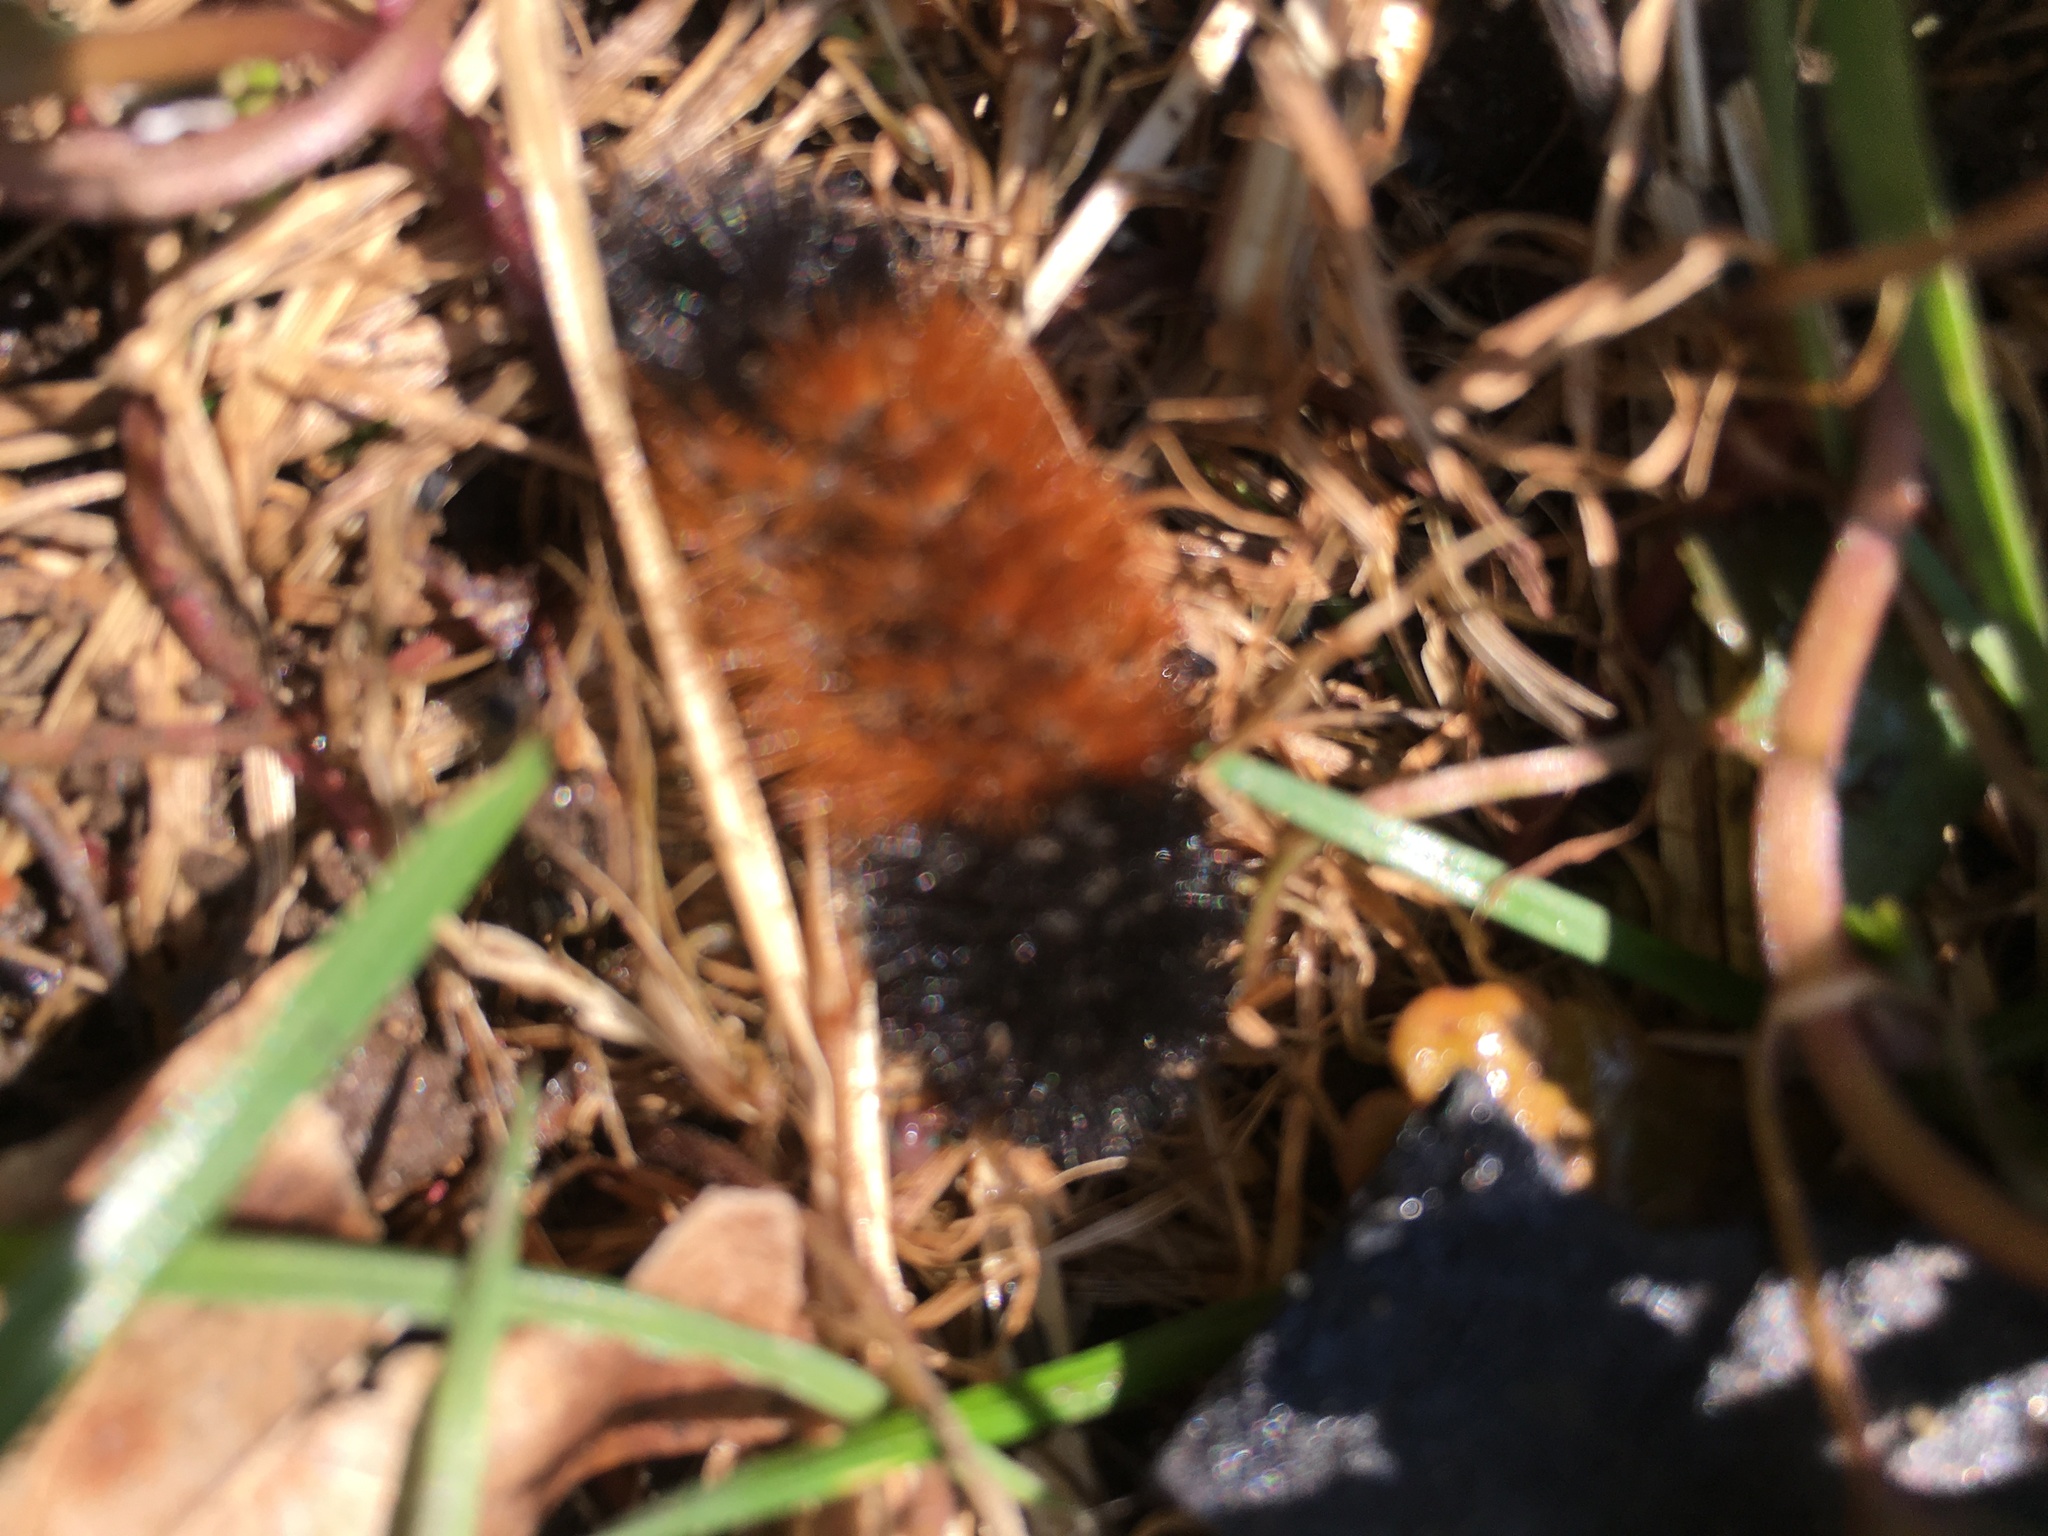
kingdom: Animalia
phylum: Arthropoda
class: Insecta
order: Lepidoptera
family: Erebidae
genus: Pyrrharctia
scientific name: Pyrrharctia isabella
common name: Isabella tiger moth
